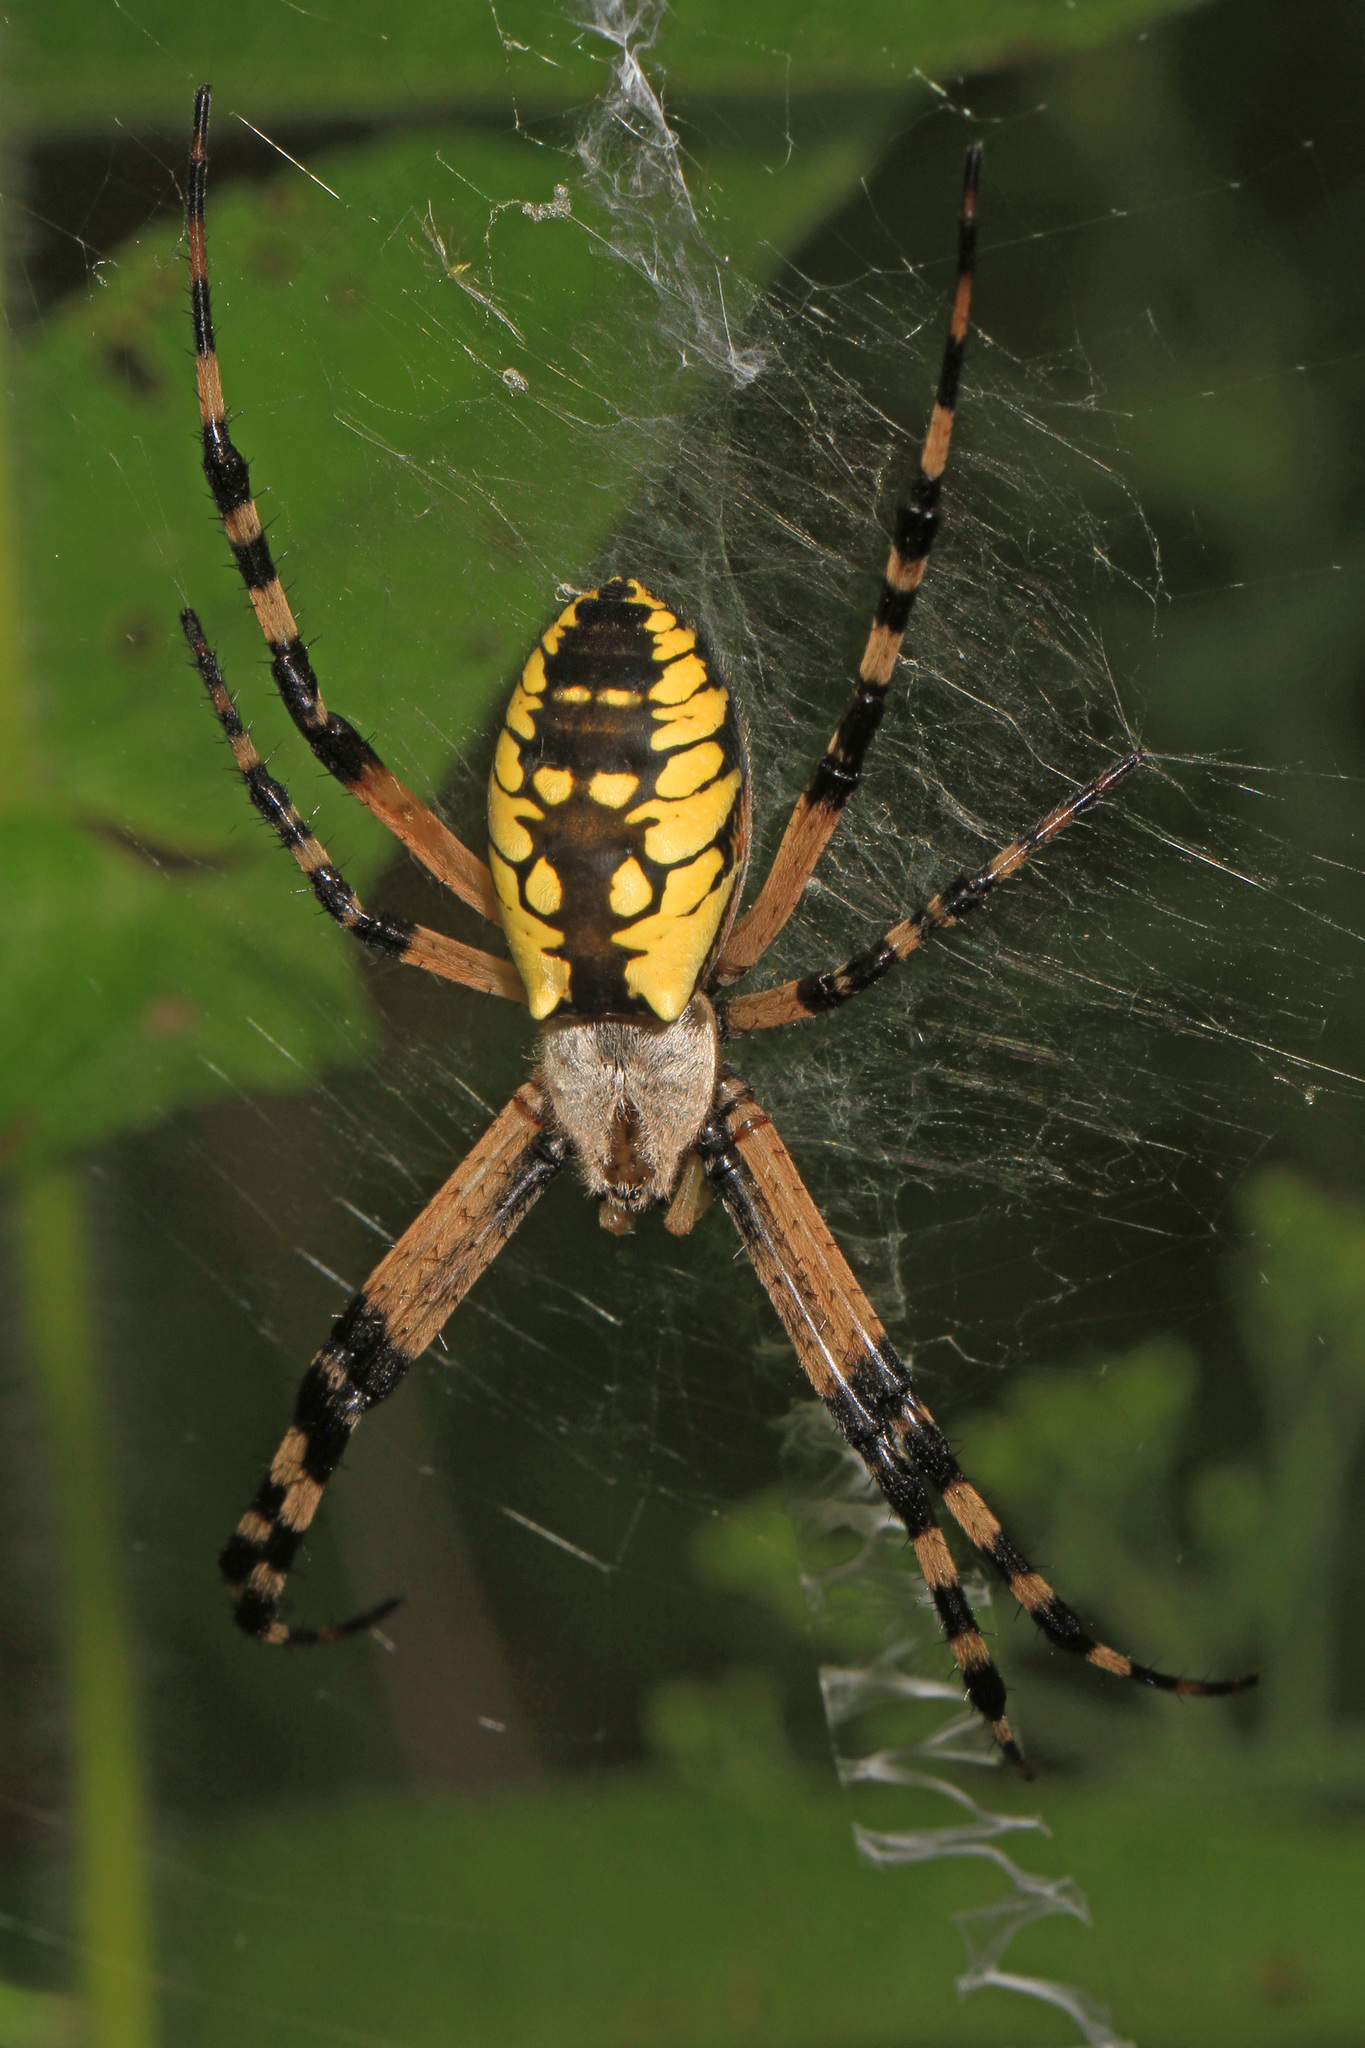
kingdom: Animalia
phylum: Arthropoda
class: Arachnida
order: Araneae
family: Araneidae
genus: Argiope
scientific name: Argiope aurantia
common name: Orb weavers
